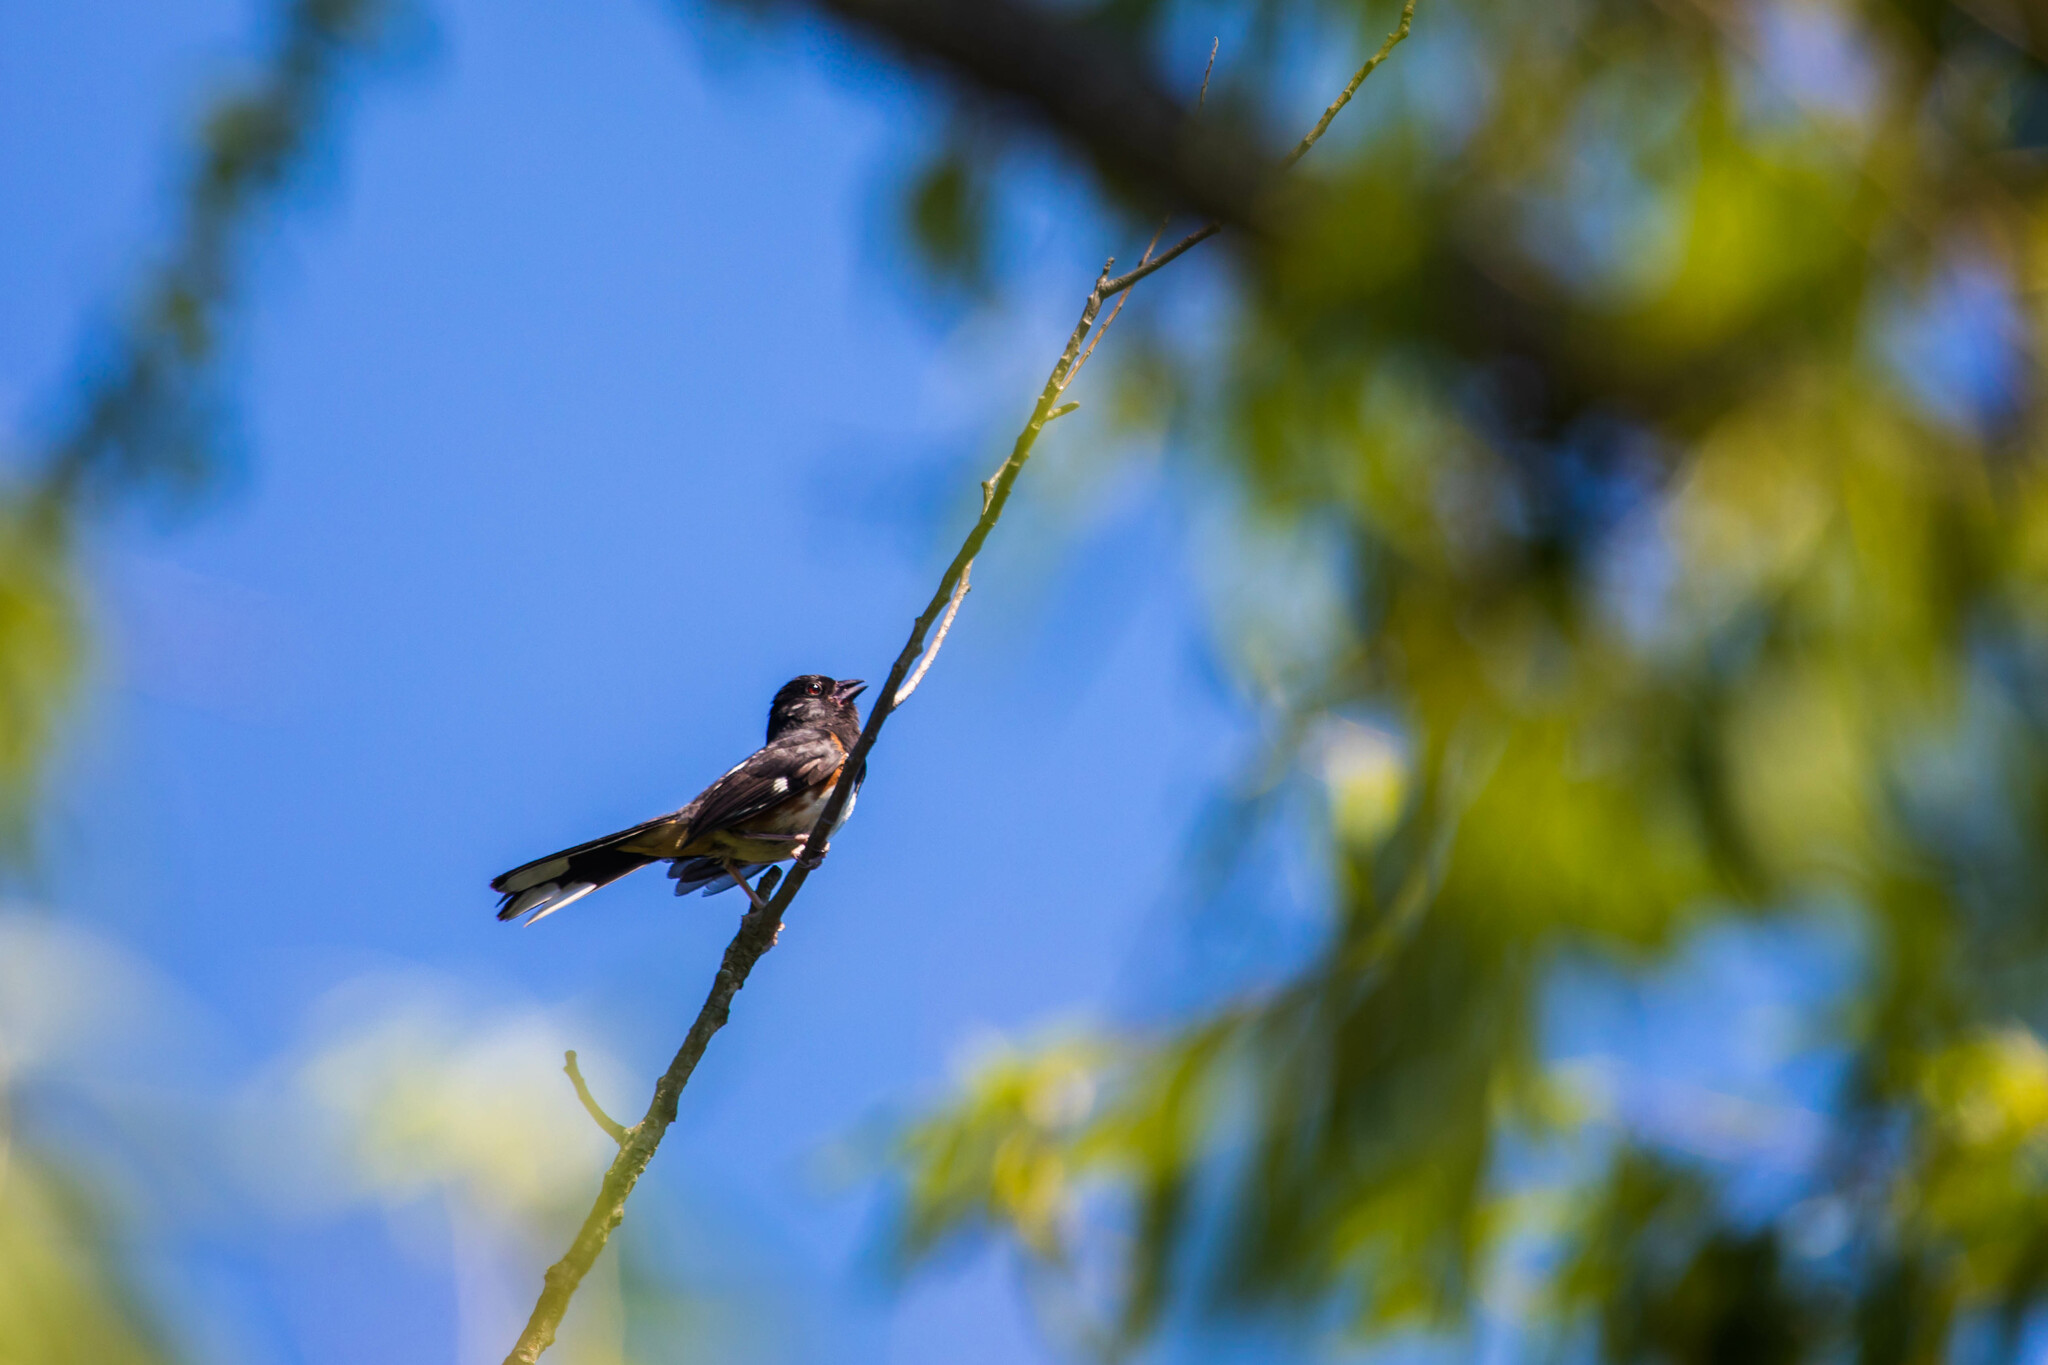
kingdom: Animalia
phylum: Chordata
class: Aves
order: Passeriformes
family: Passerellidae
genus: Pipilo
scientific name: Pipilo erythrophthalmus
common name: Eastern towhee
